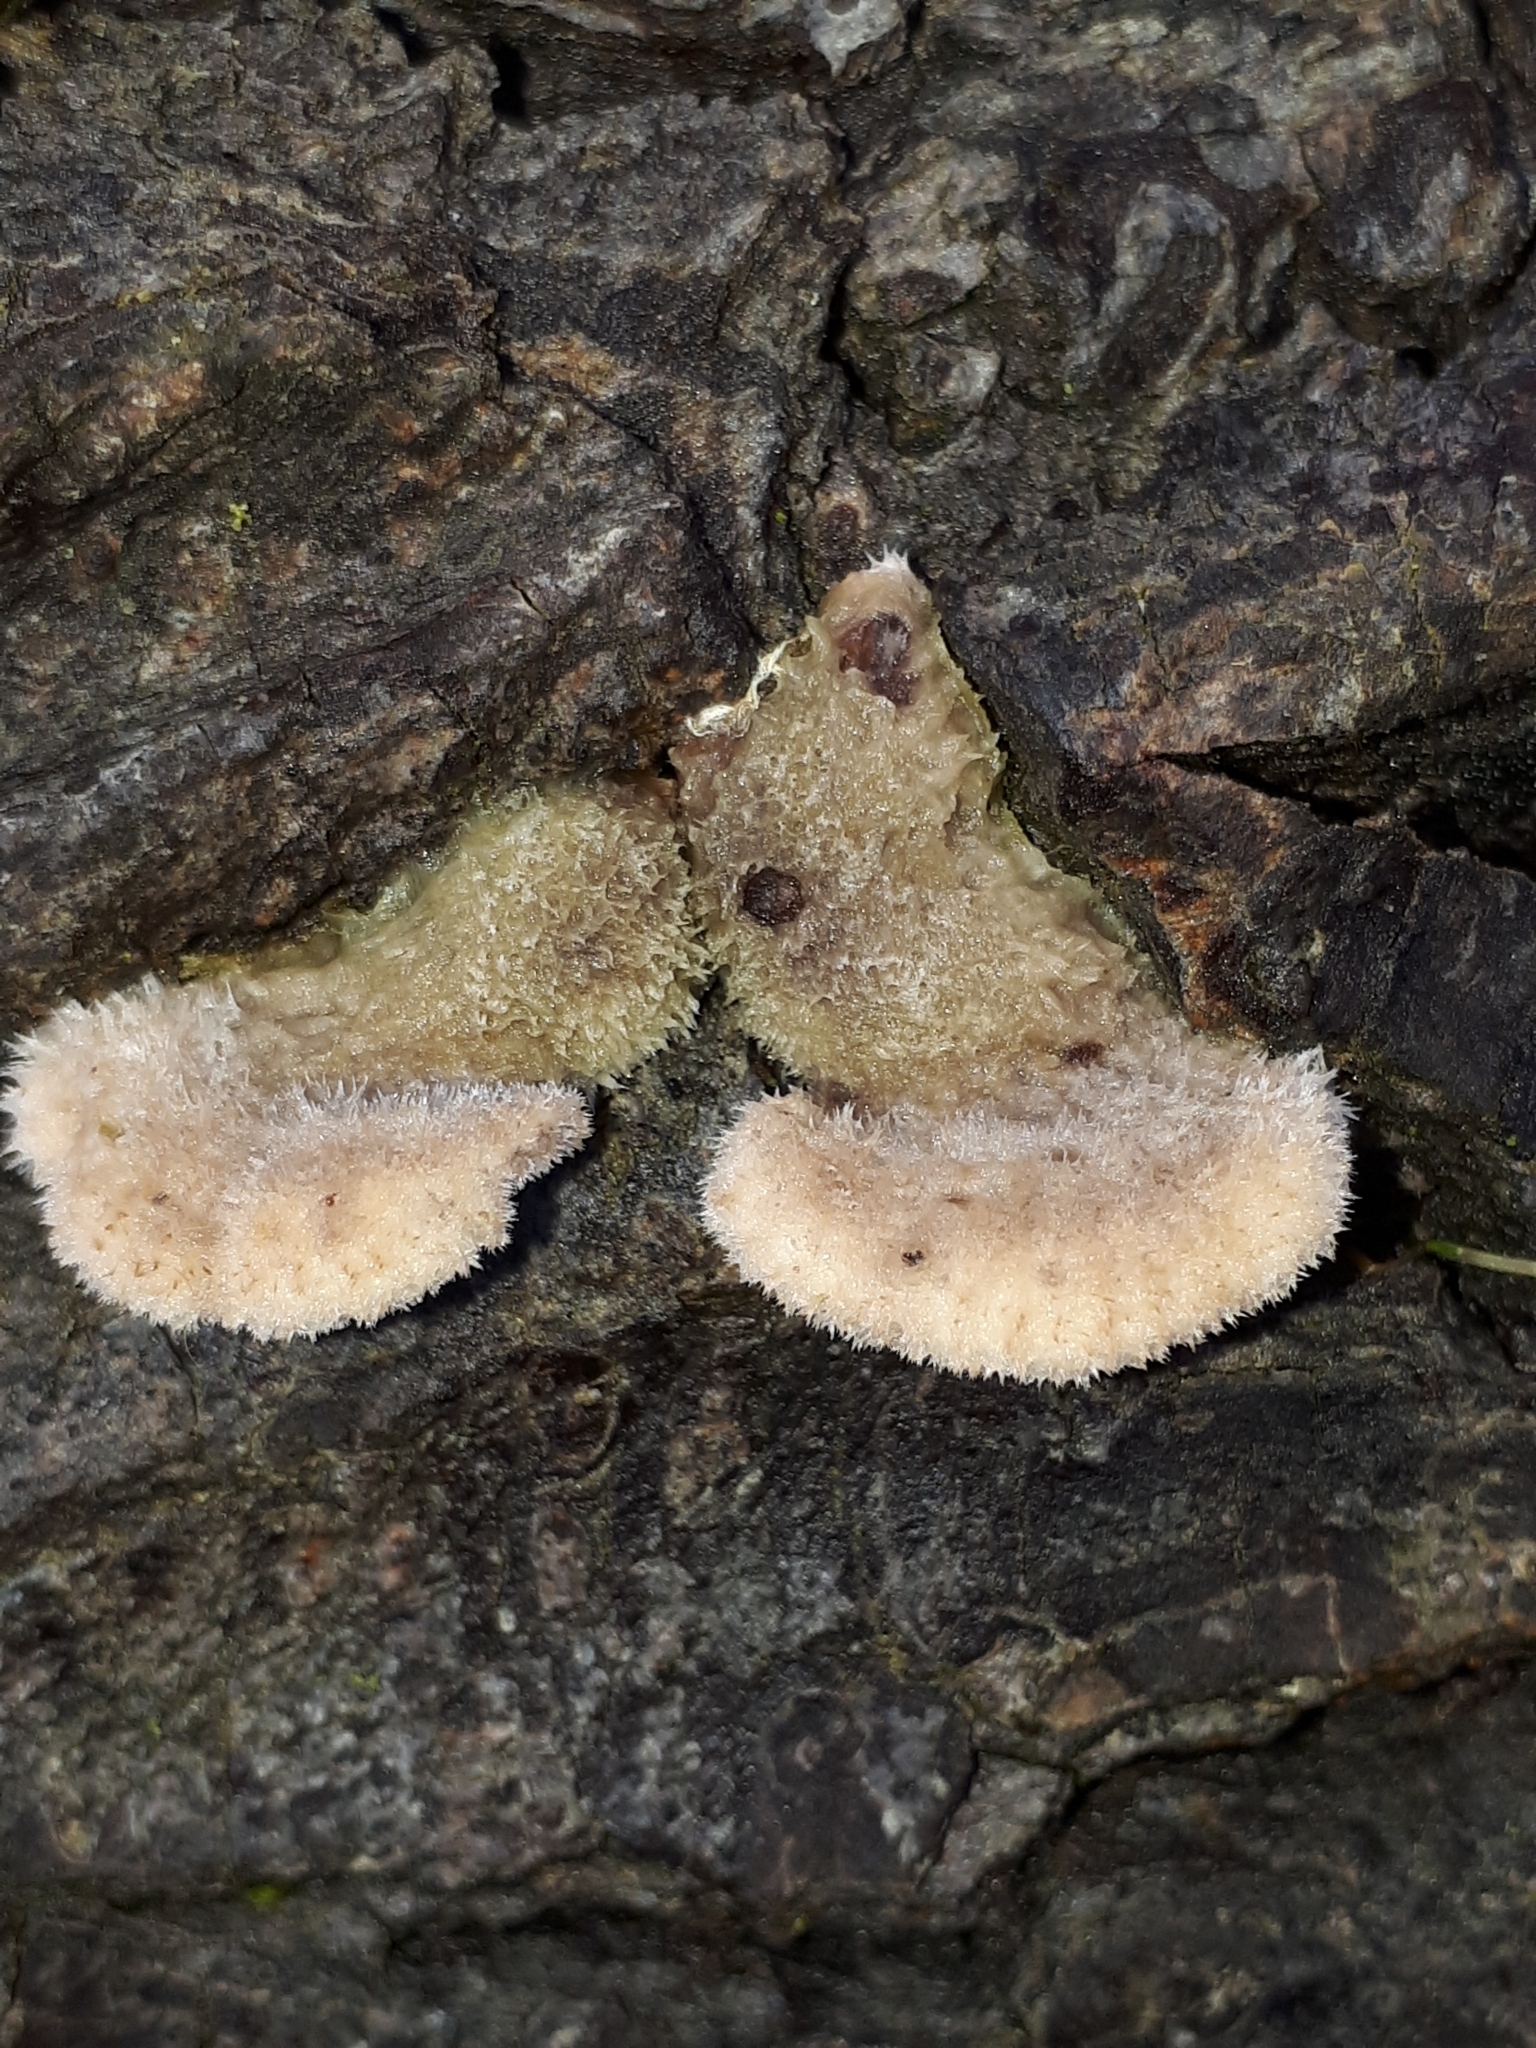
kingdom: Fungi
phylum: Basidiomycota
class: Agaricomycetes
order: Agaricales
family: Schizophyllaceae
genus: Schizophyllum
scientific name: Schizophyllum commune
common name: Common porecrust
